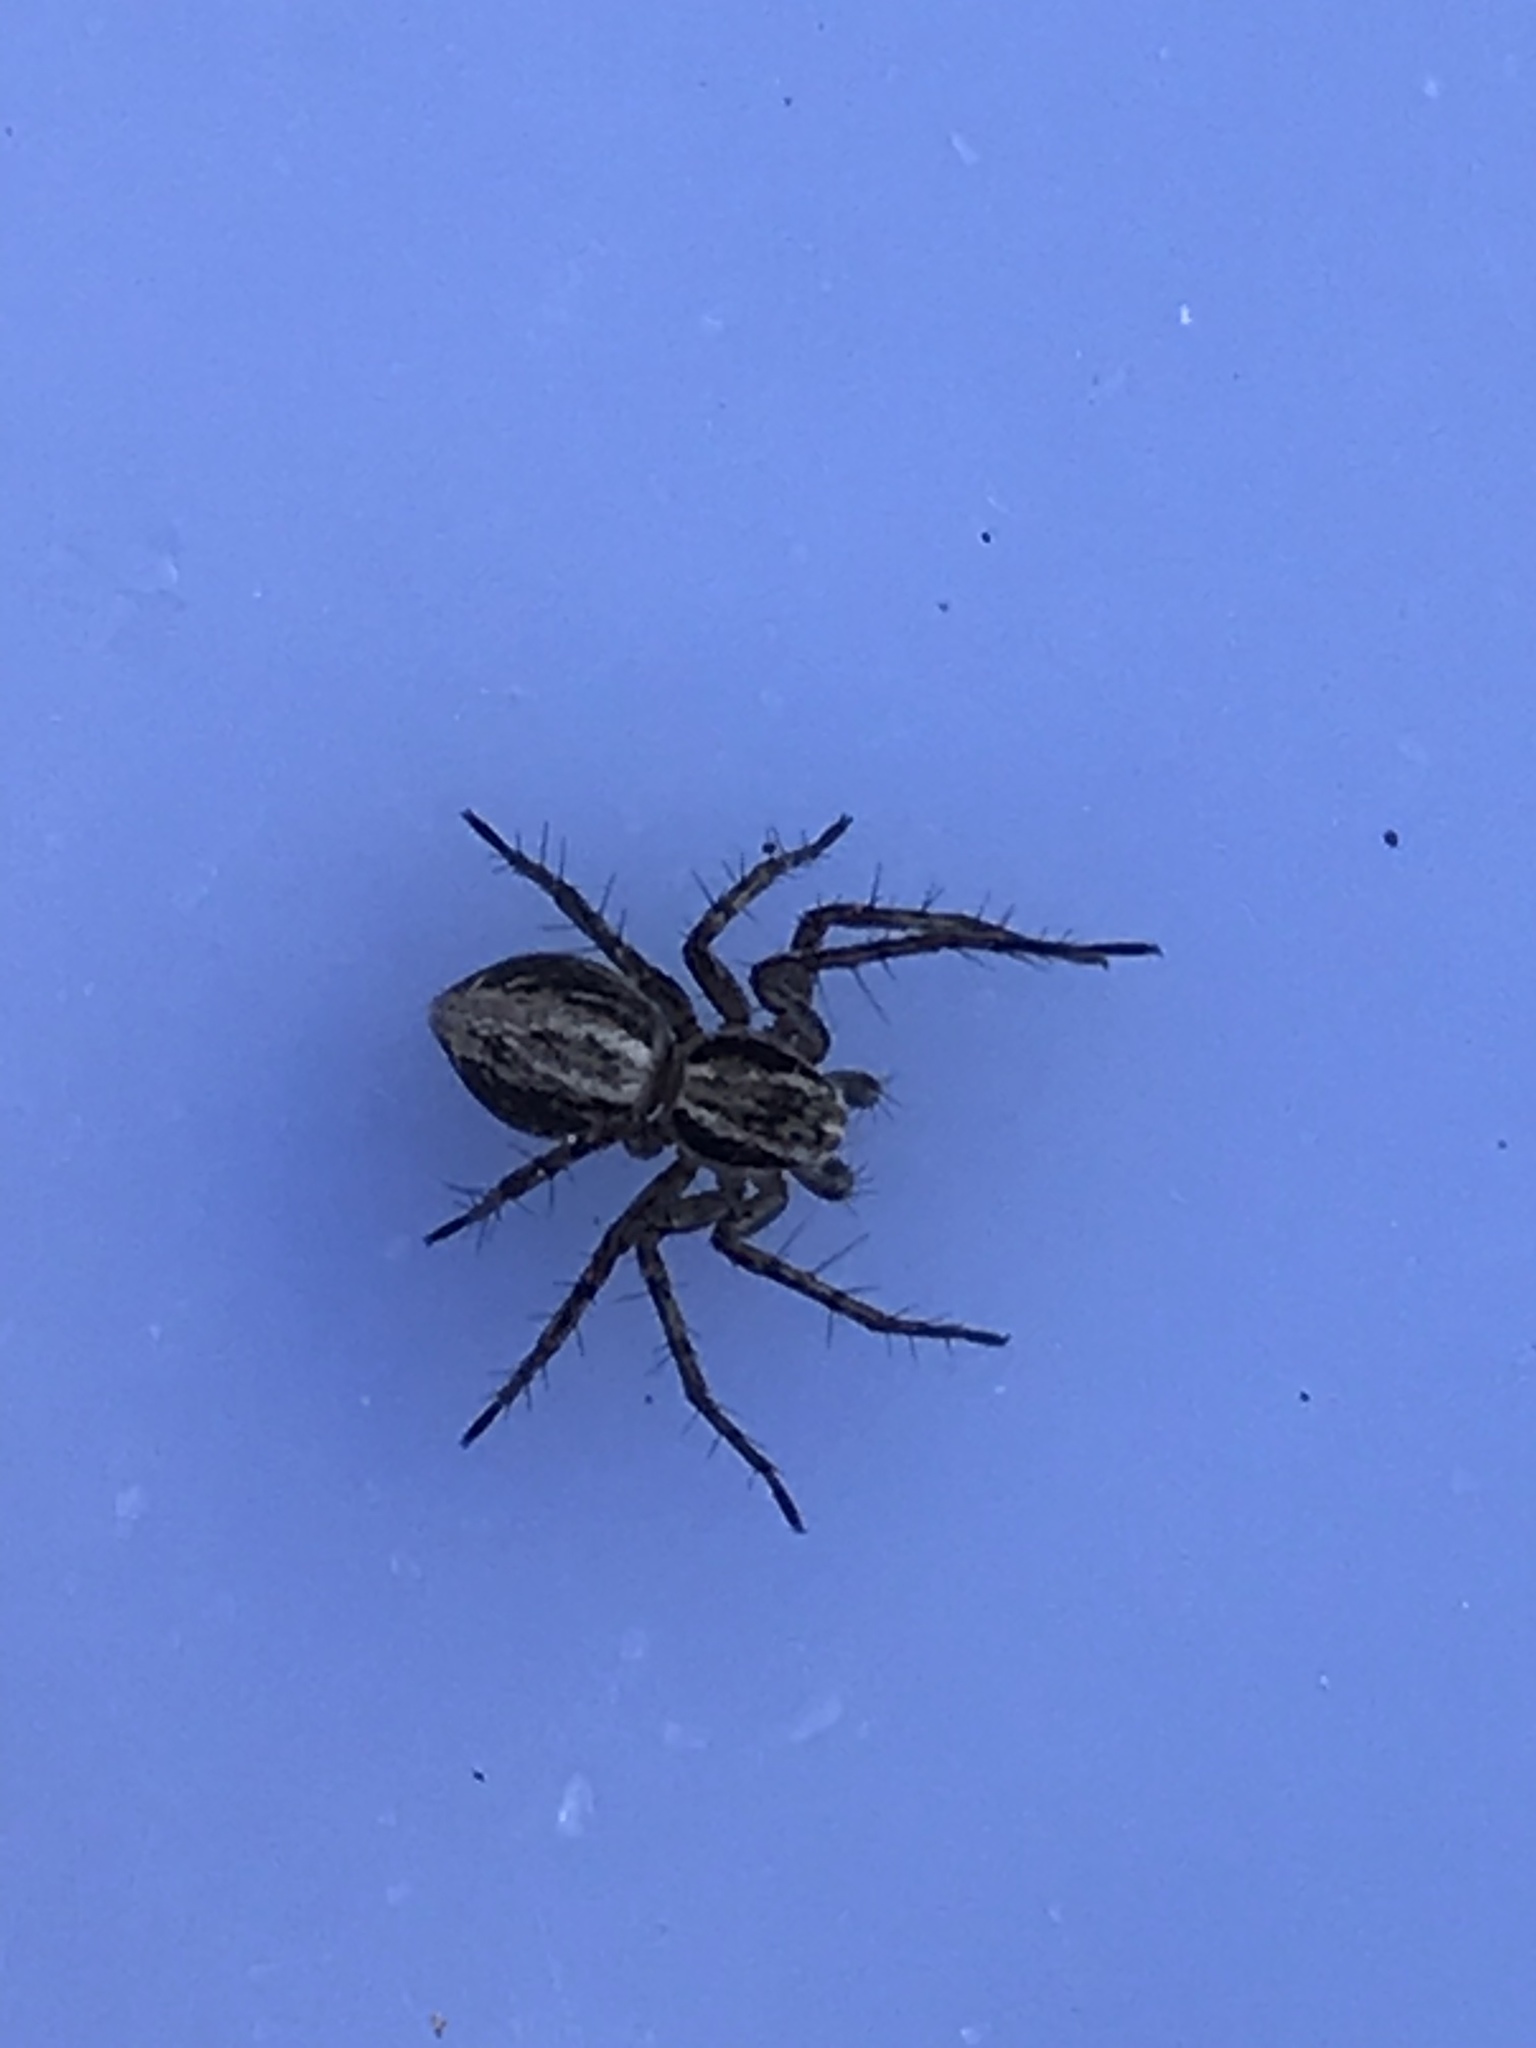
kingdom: Animalia
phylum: Arthropoda
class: Arachnida
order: Araneae
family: Oxyopidae
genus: Oxyopes
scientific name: Oxyopes gracilipes
